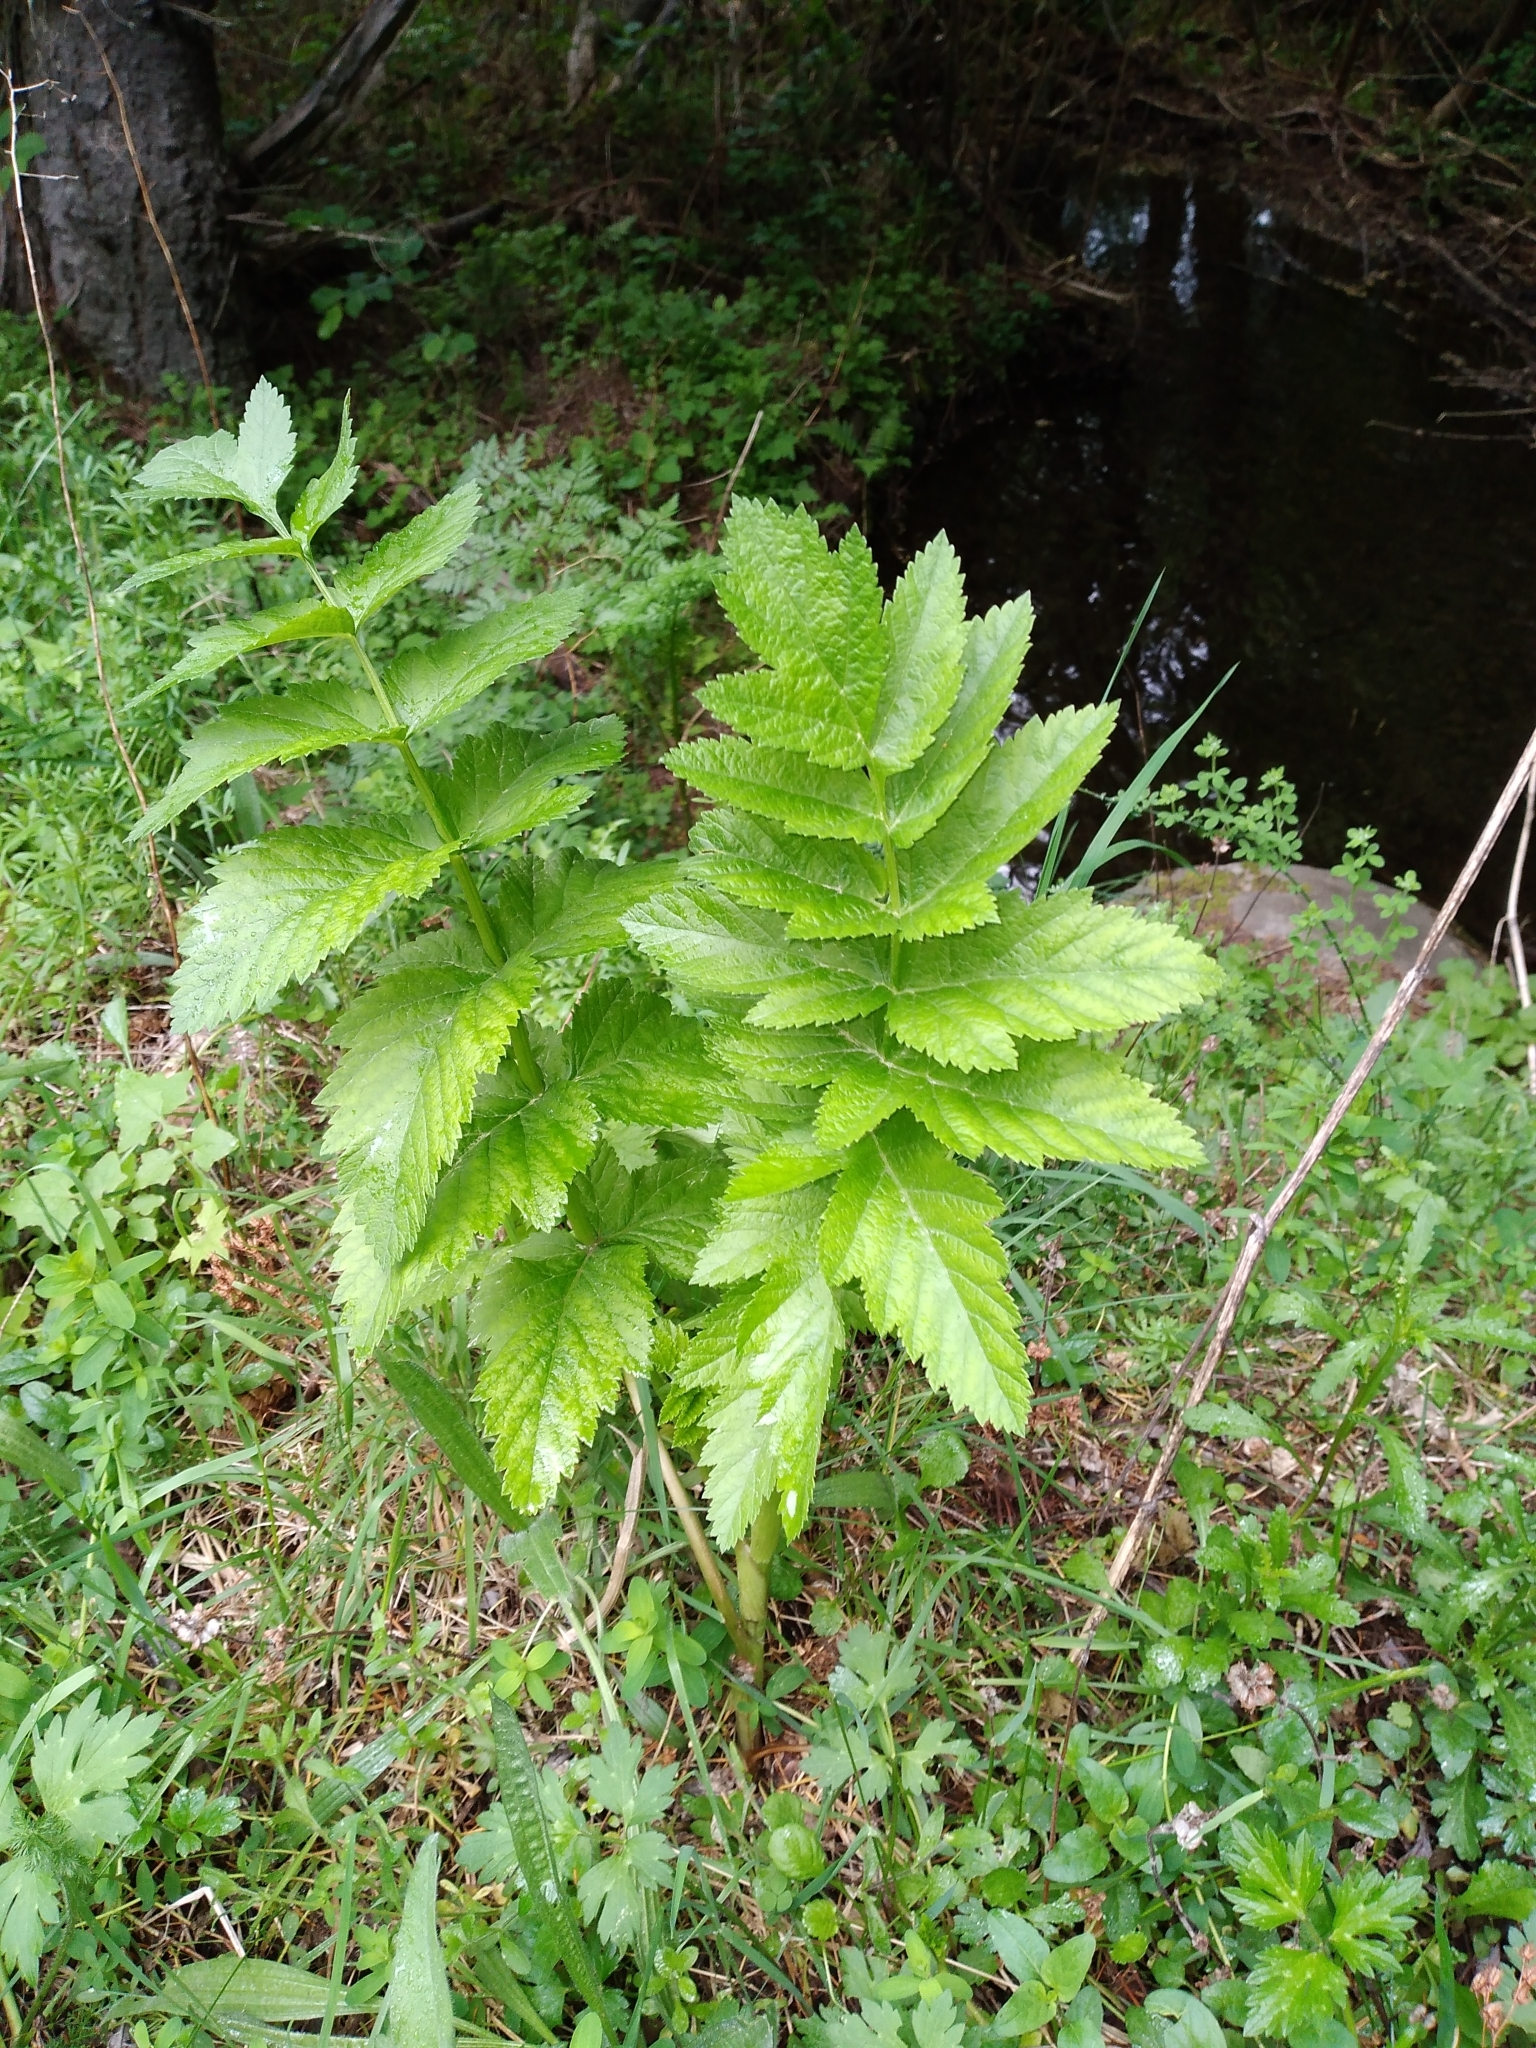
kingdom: Plantae
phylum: Tracheophyta
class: Magnoliopsida
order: Apiales
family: Apiaceae
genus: Pastinaca
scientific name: Pastinaca sativa
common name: Wild parsnip
